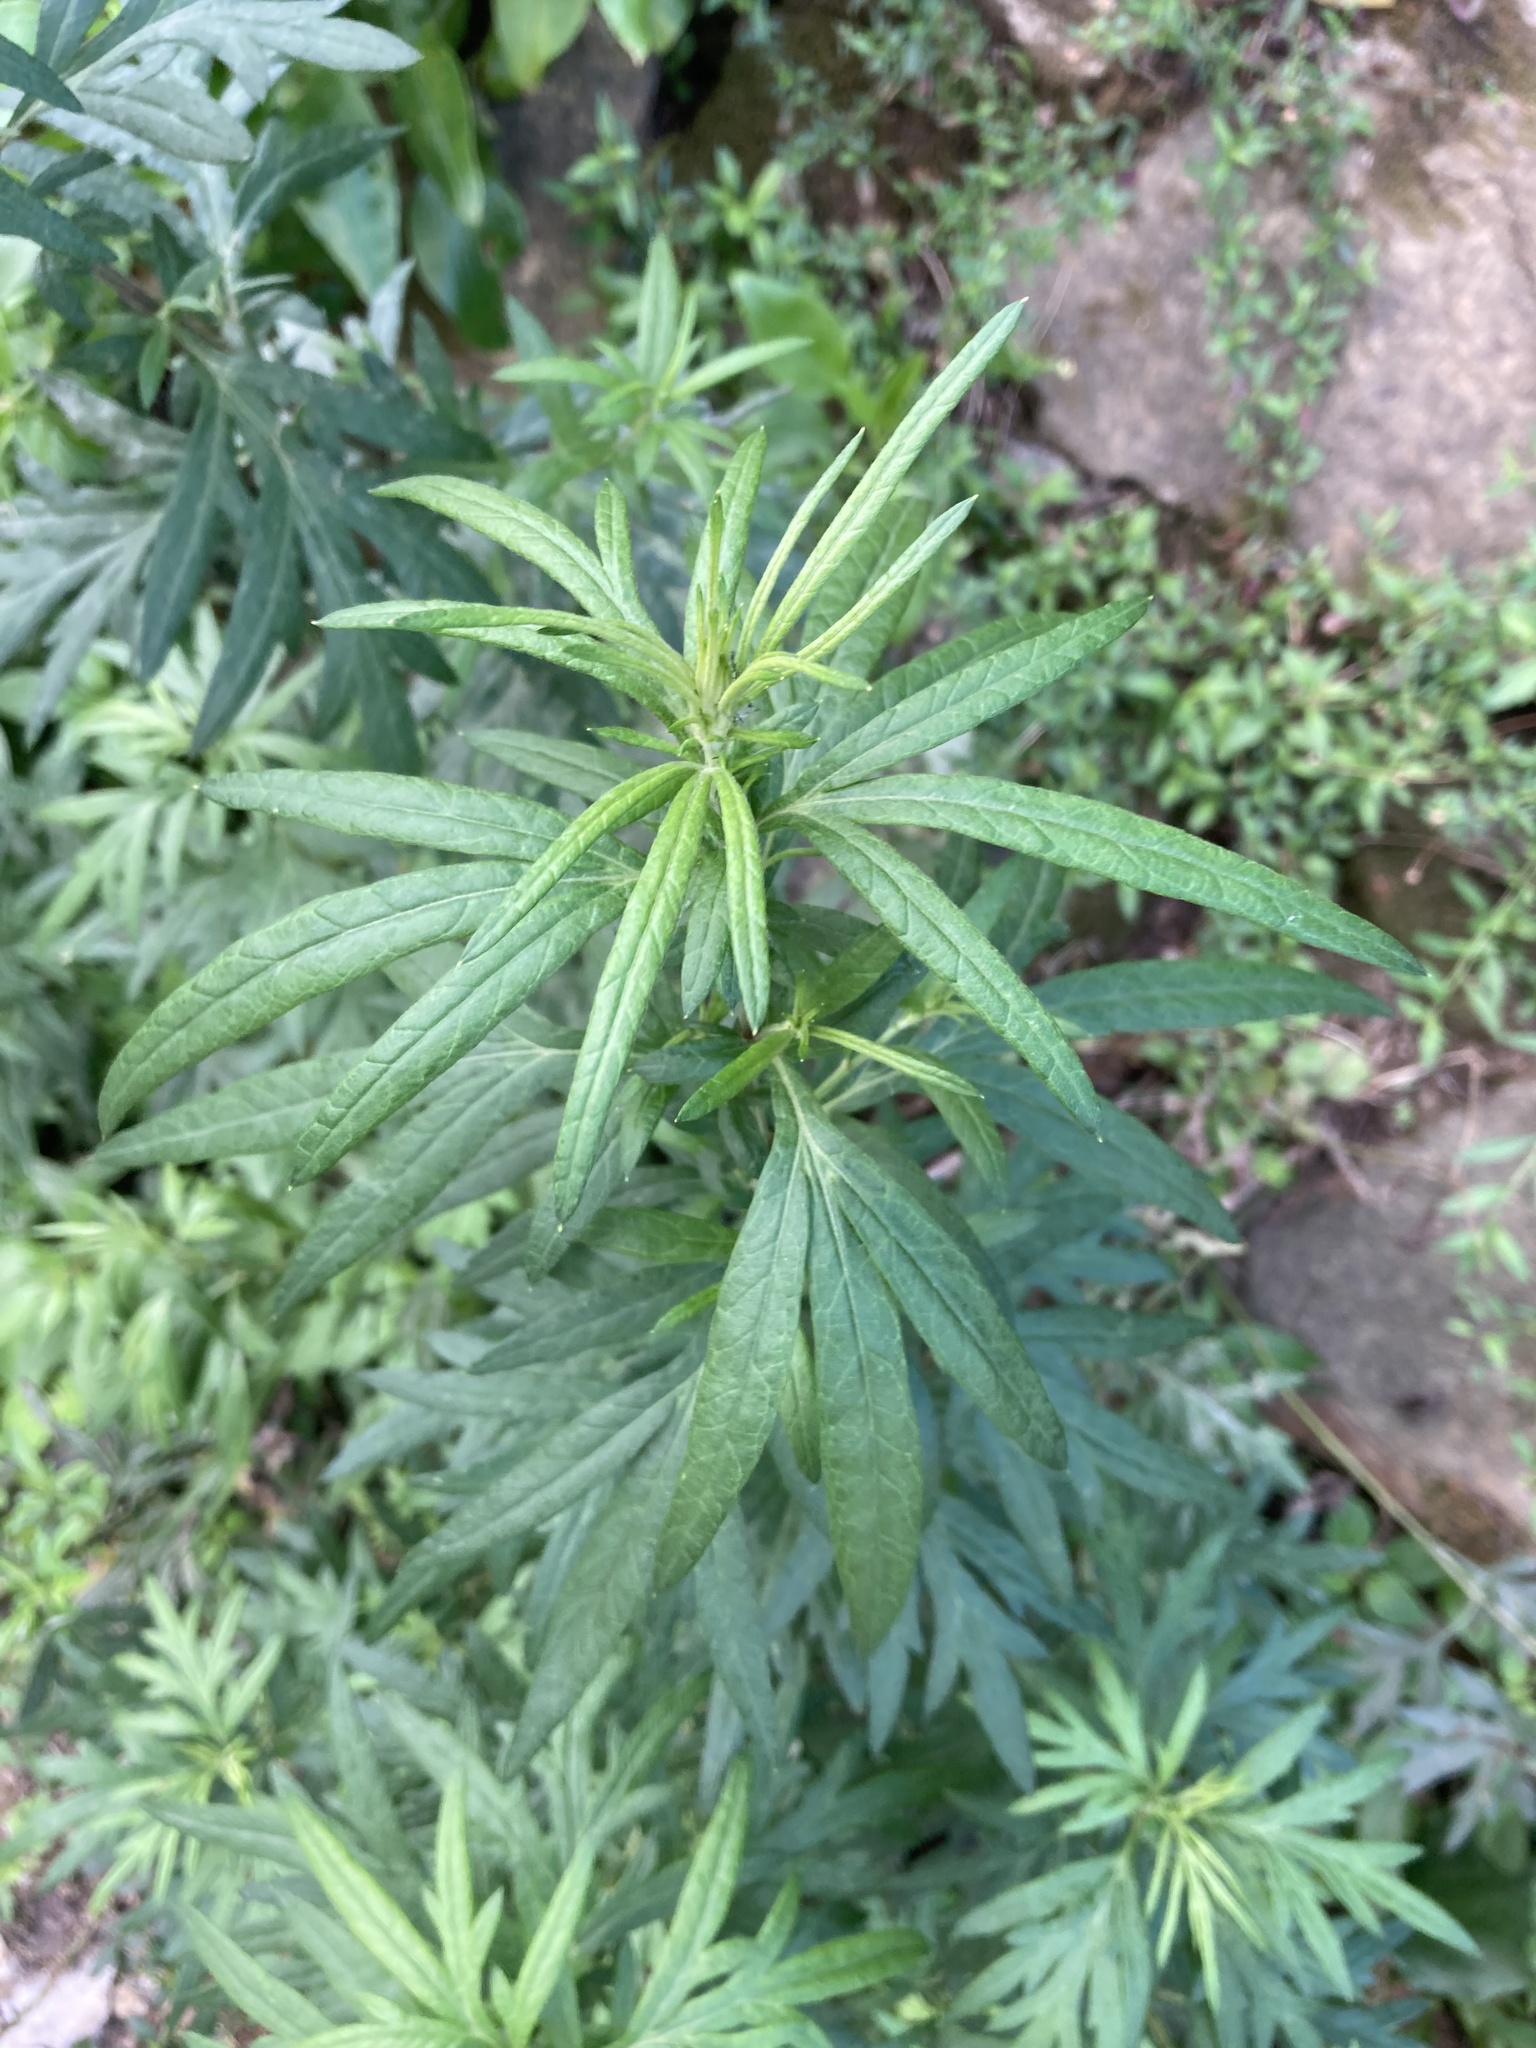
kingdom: Plantae
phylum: Tracheophyta
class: Magnoliopsida
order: Asterales
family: Asteraceae
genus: Artemisia
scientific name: Artemisia verlotiorum
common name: Chinese mugwort
